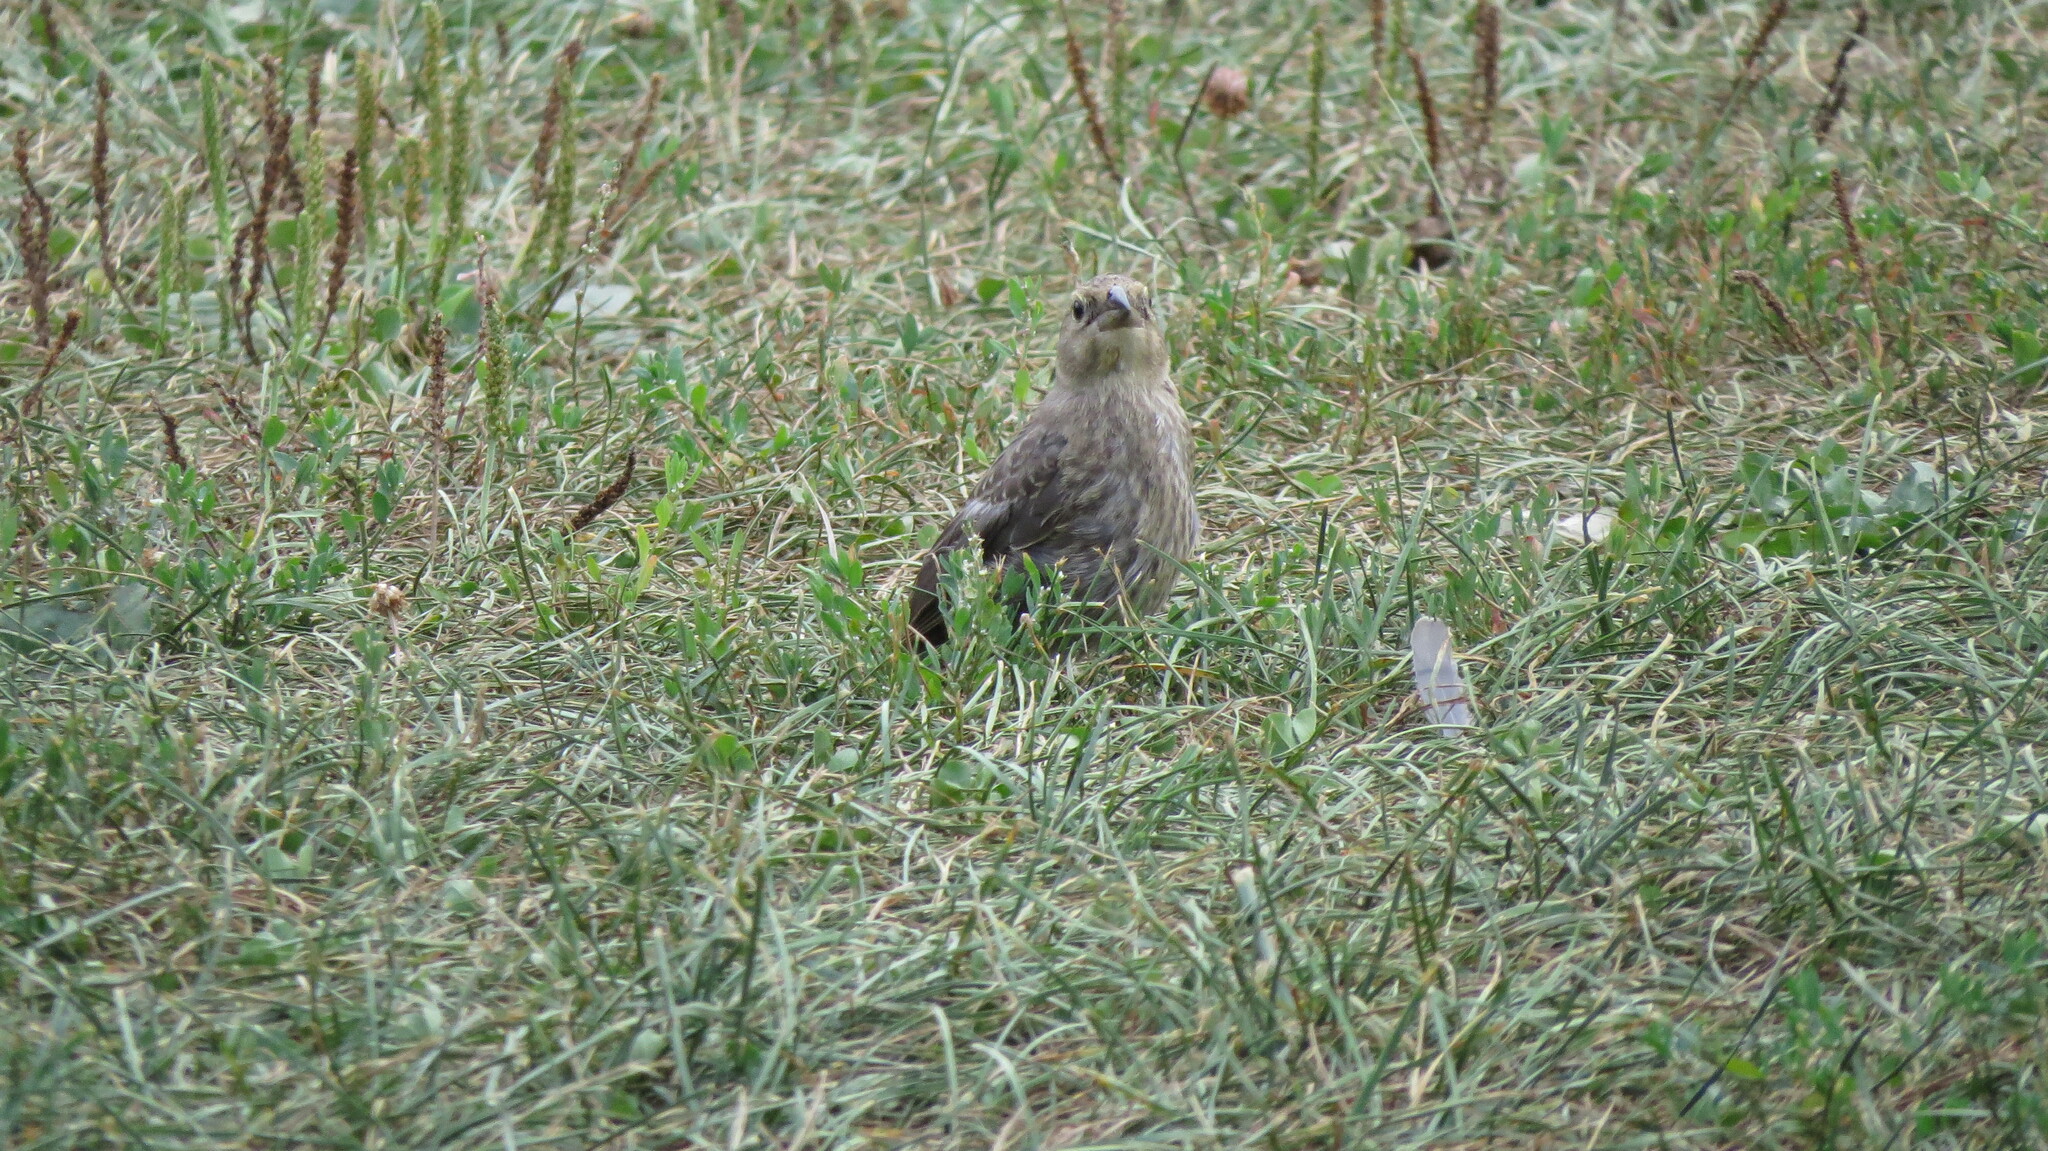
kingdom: Animalia
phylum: Chordata
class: Aves
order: Passeriformes
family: Fringillidae
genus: Haemorhous
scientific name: Haemorhous mexicanus
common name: House finch
